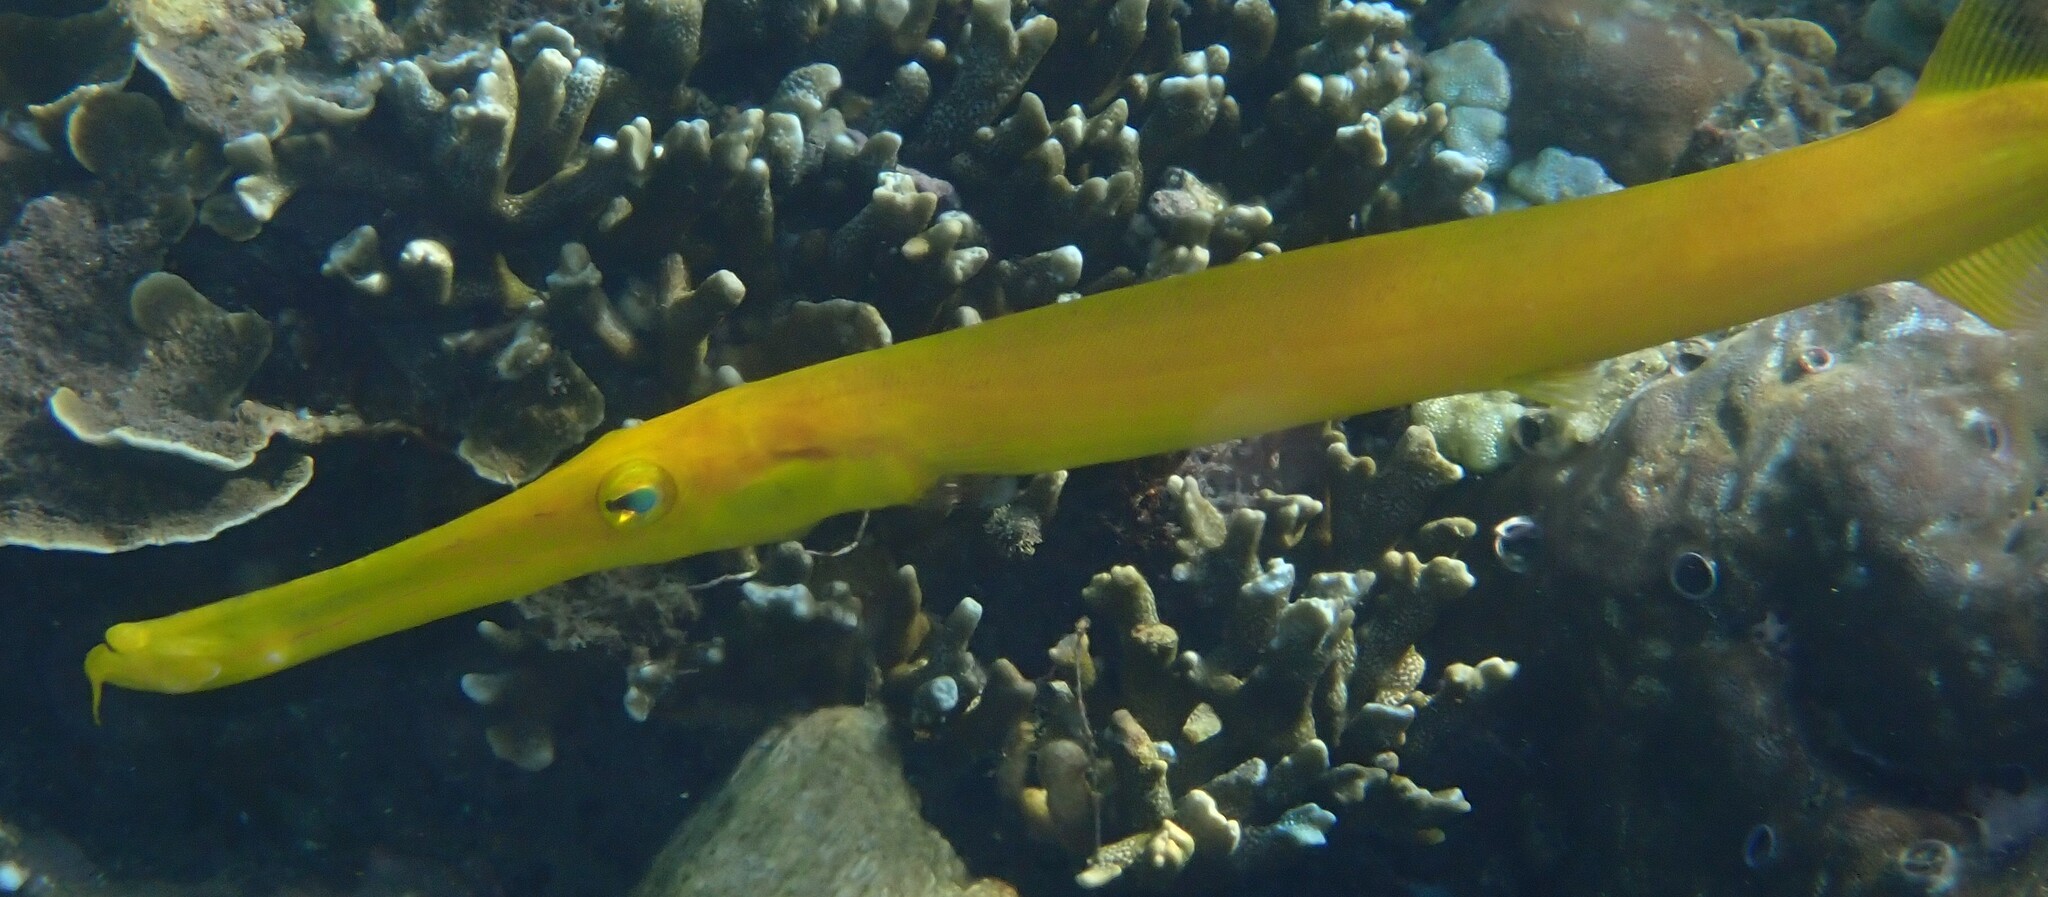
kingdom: Animalia
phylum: Chordata
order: Syngnathiformes
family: Aulostomidae
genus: Aulostomus
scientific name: Aulostomus chinensis
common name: Chinese trumpetfish
